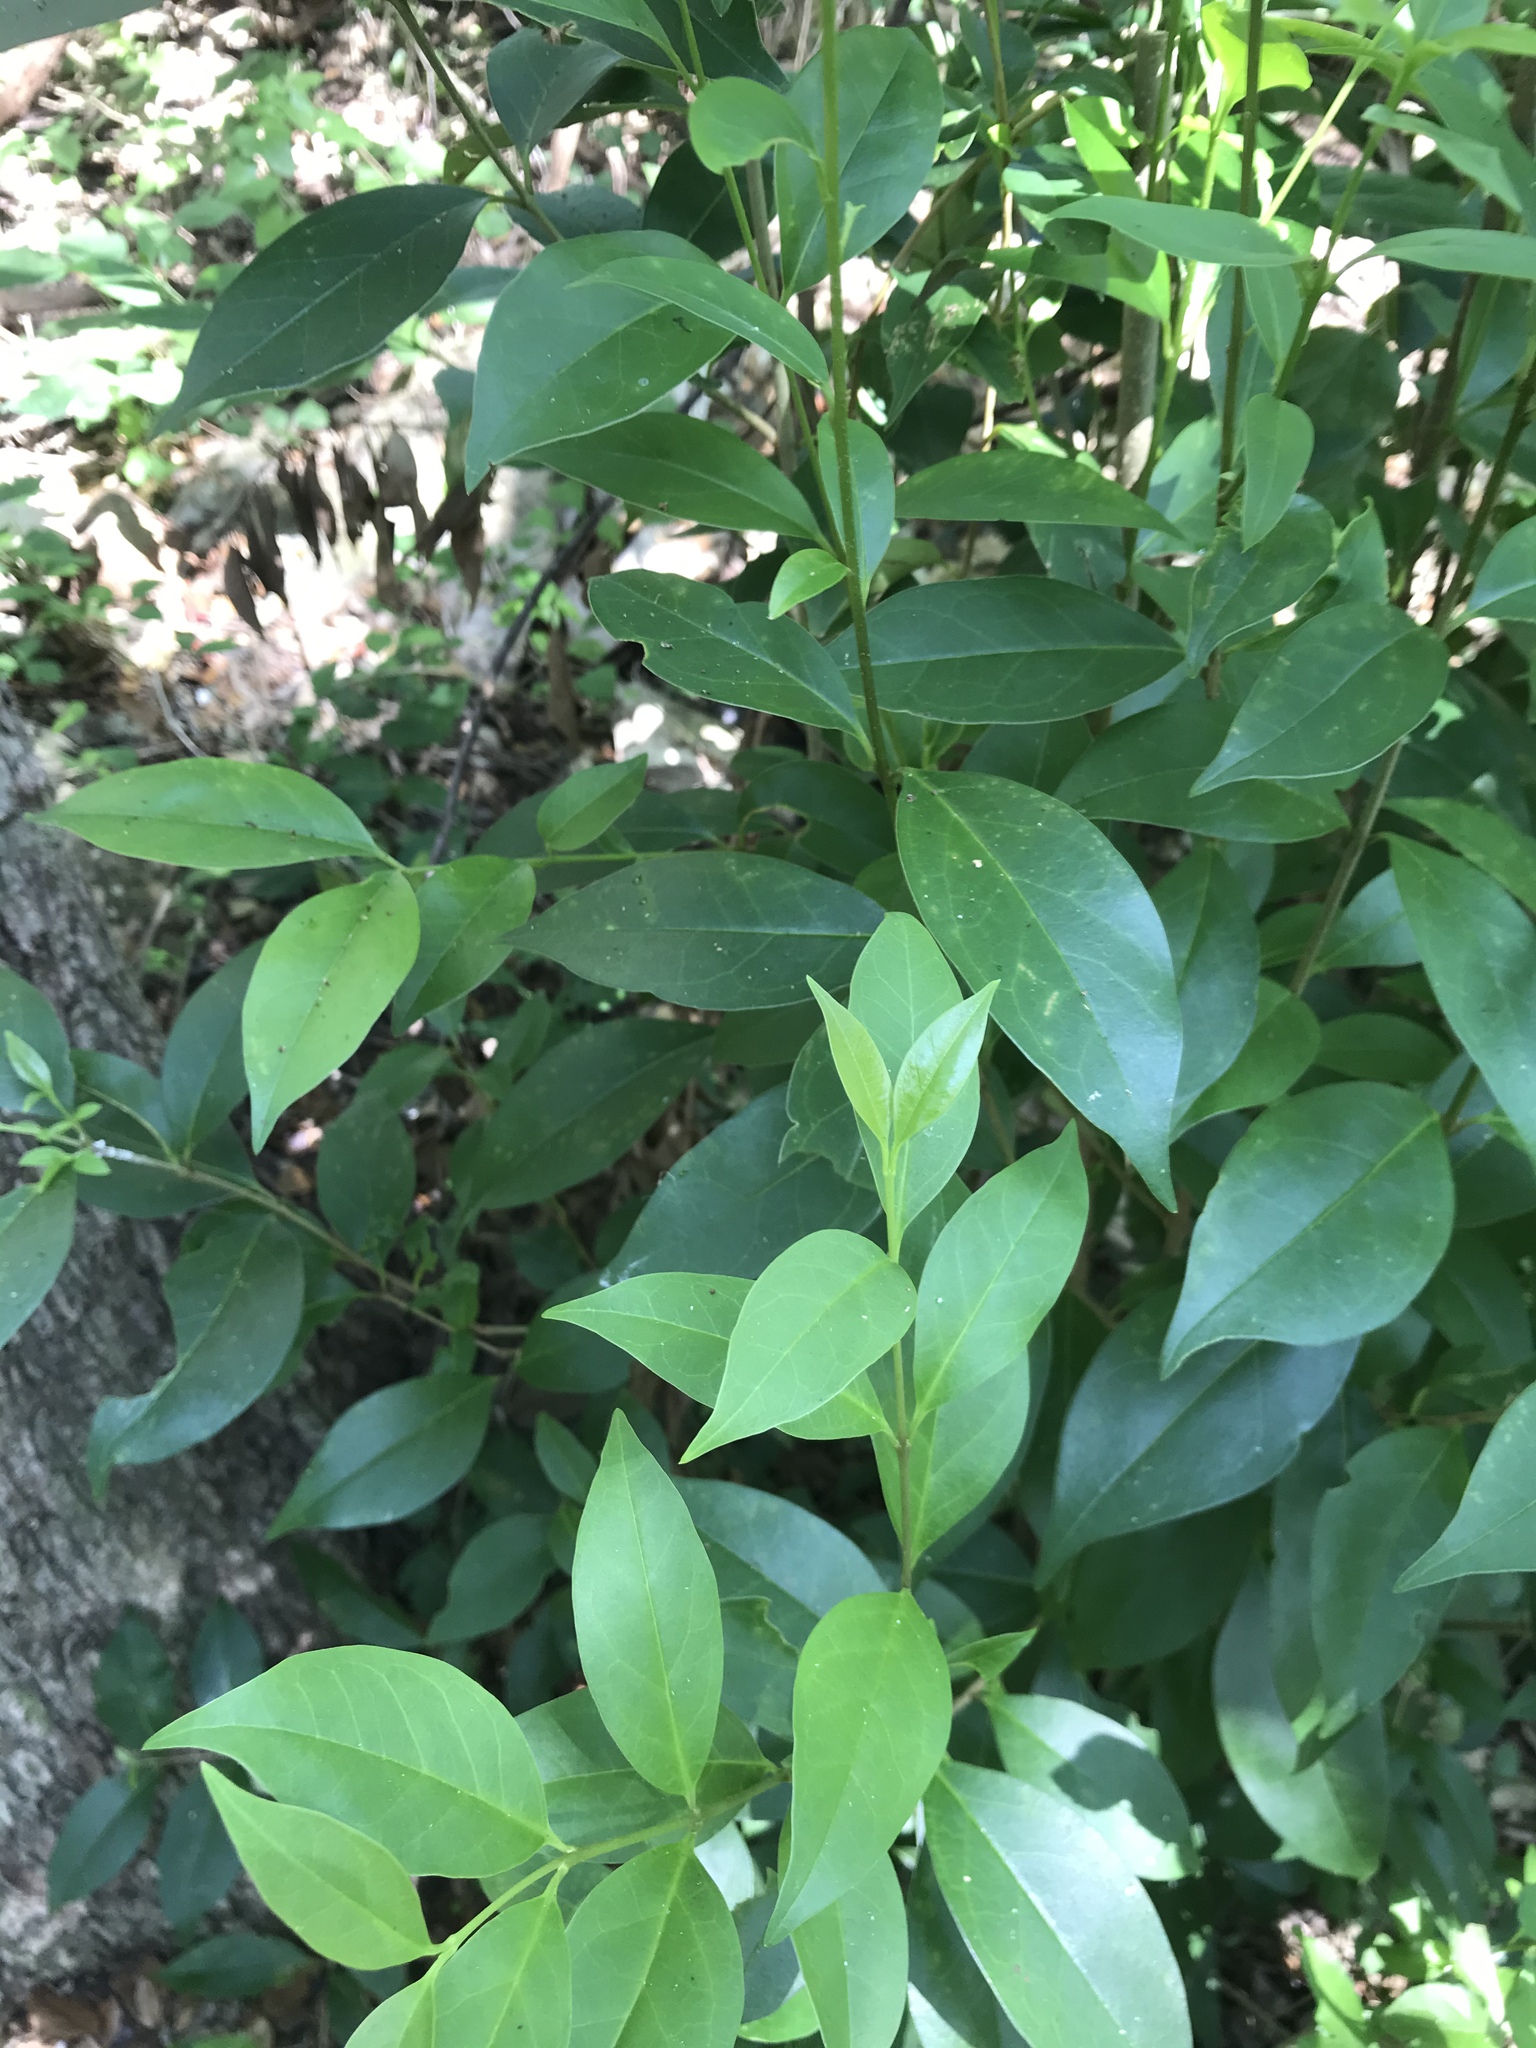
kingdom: Plantae
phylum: Tracheophyta
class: Magnoliopsida
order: Lamiales
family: Oleaceae
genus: Ligustrum
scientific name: Ligustrum lucidum
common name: Glossy privet
